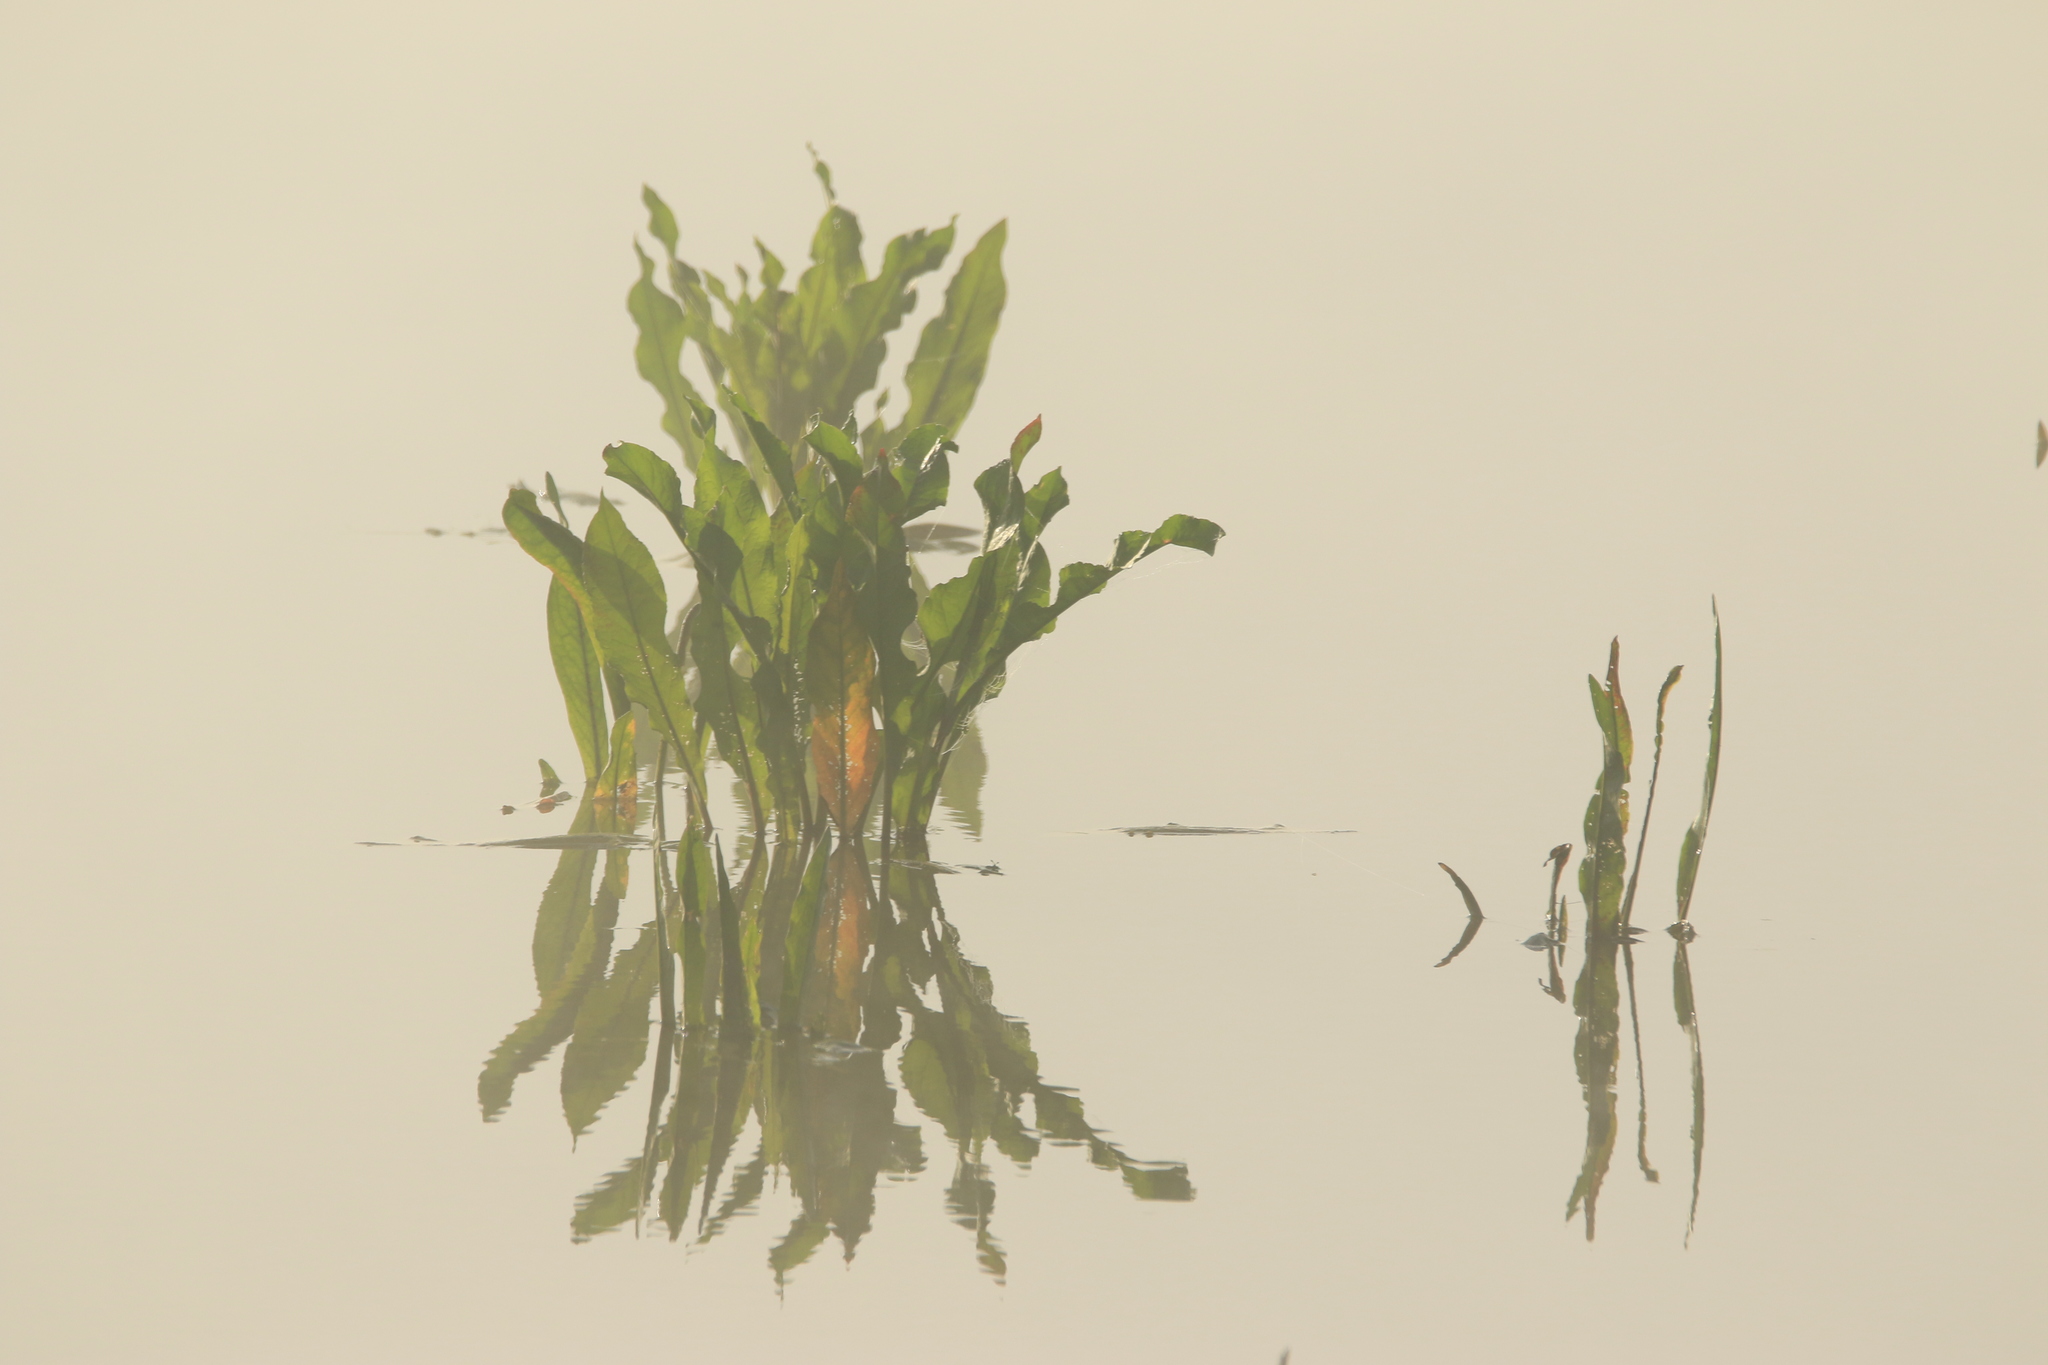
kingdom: Plantae
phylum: Tracheophyta
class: Magnoliopsida
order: Caryophyllales
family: Polygonaceae
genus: Rumex
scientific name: Rumex hydrolapathum
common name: Water dock
